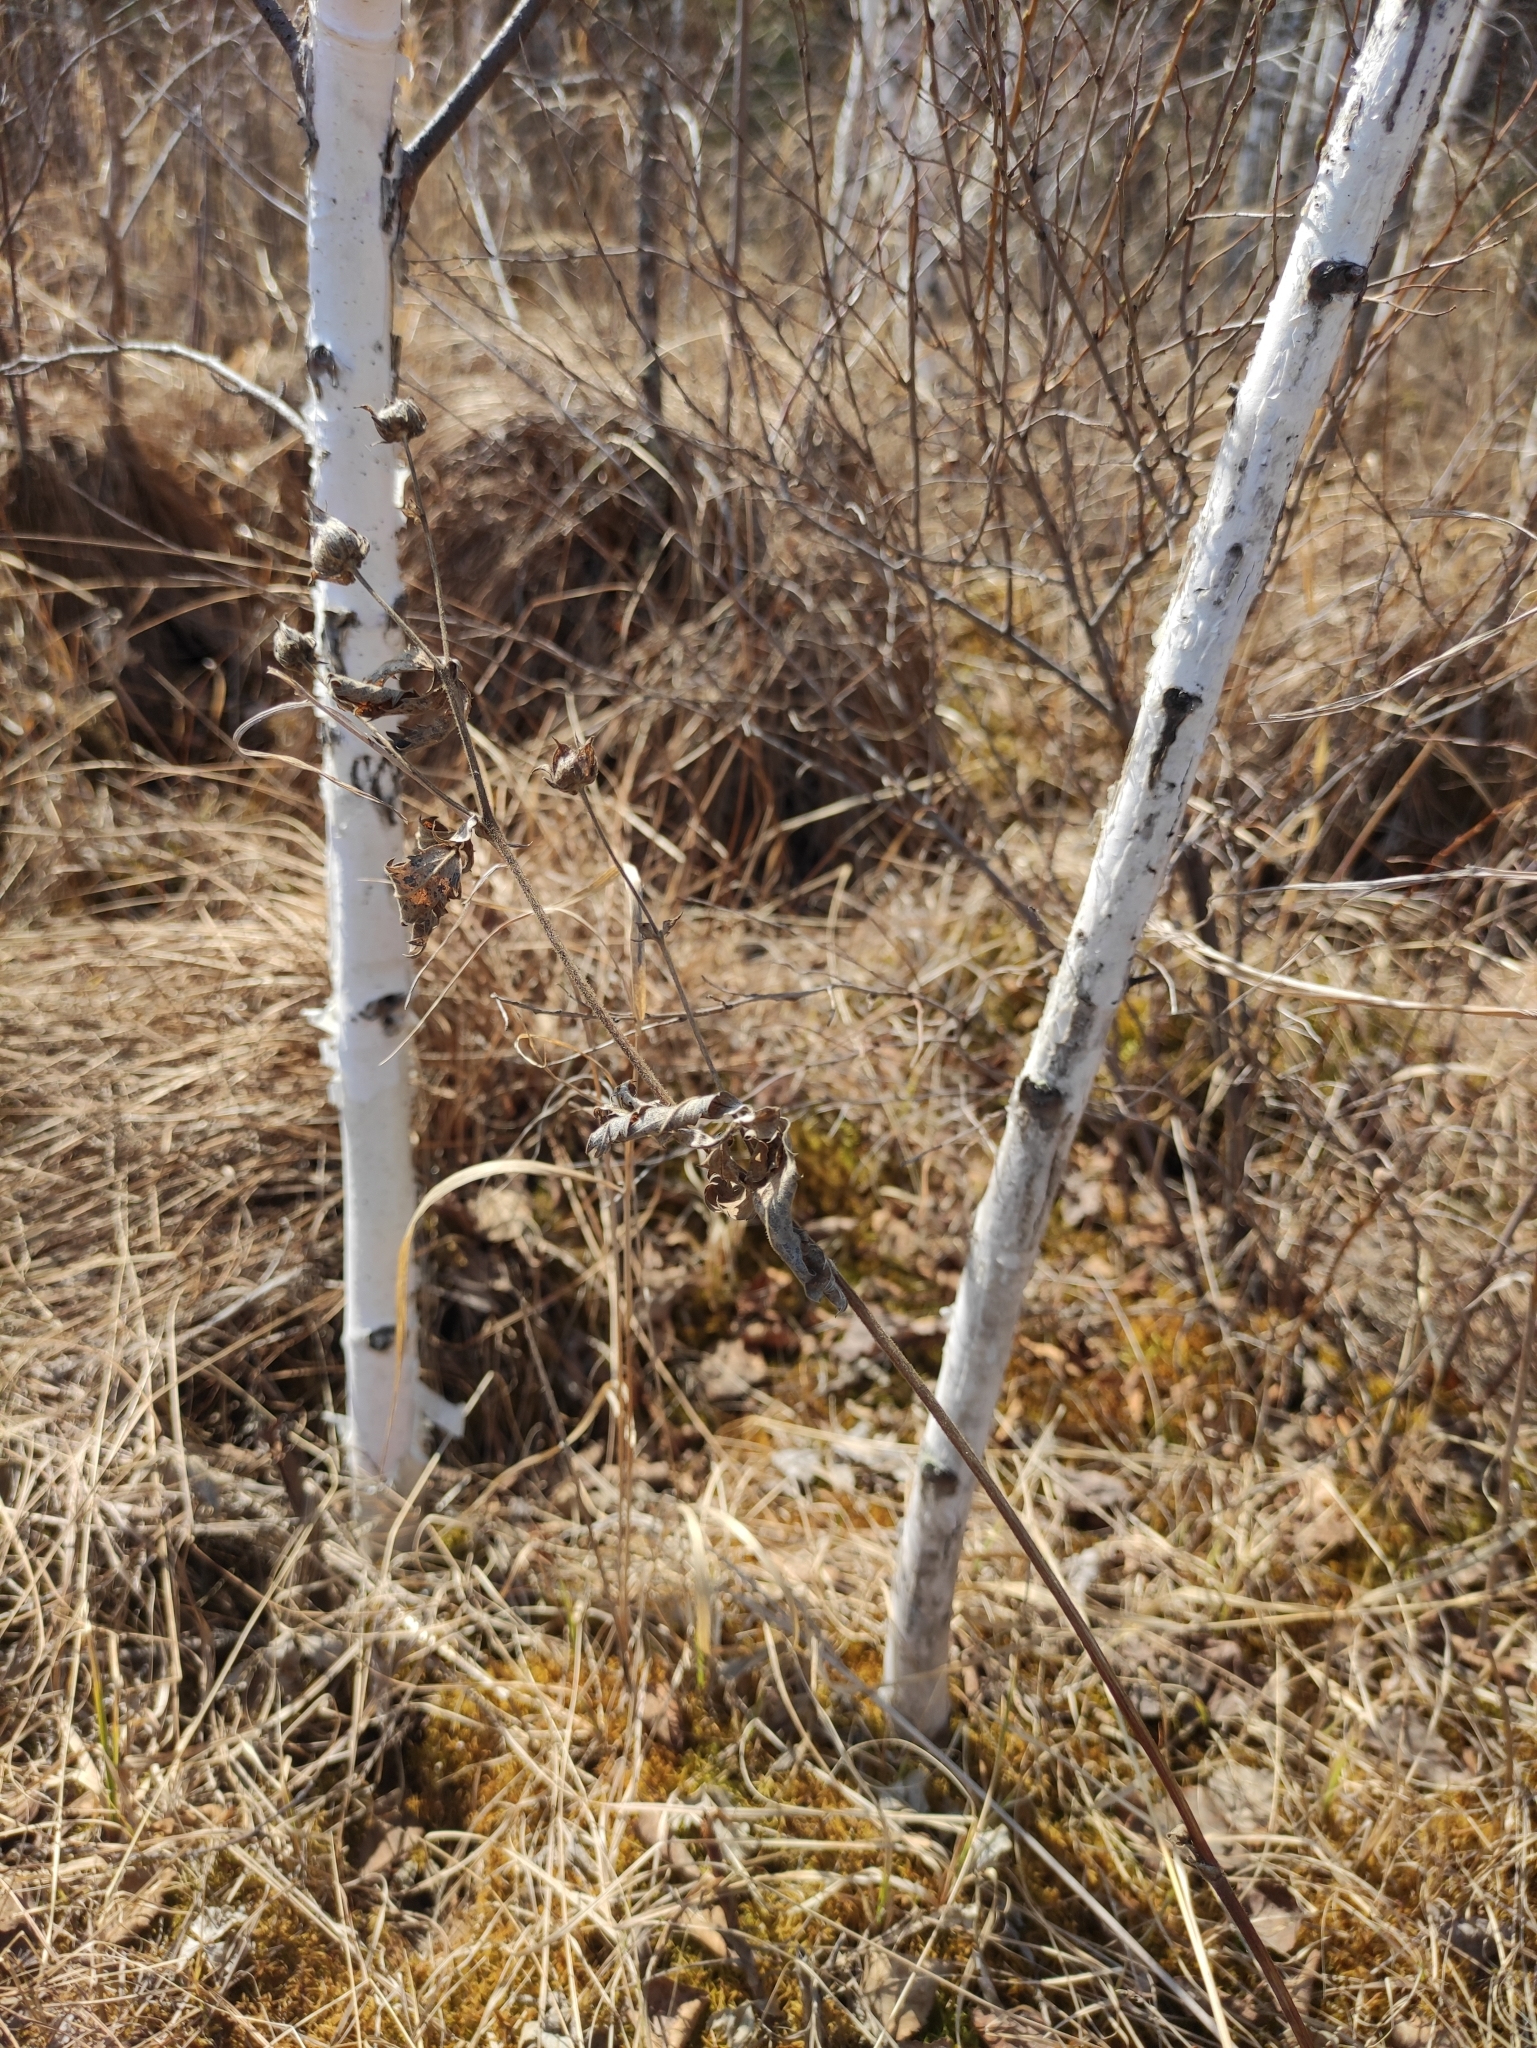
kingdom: Plantae
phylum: Tracheophyta
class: Magnoliopsida
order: Rosales
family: Rosaceae
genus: Comarum
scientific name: Comarum palustre
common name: Marsh cinquefoil
